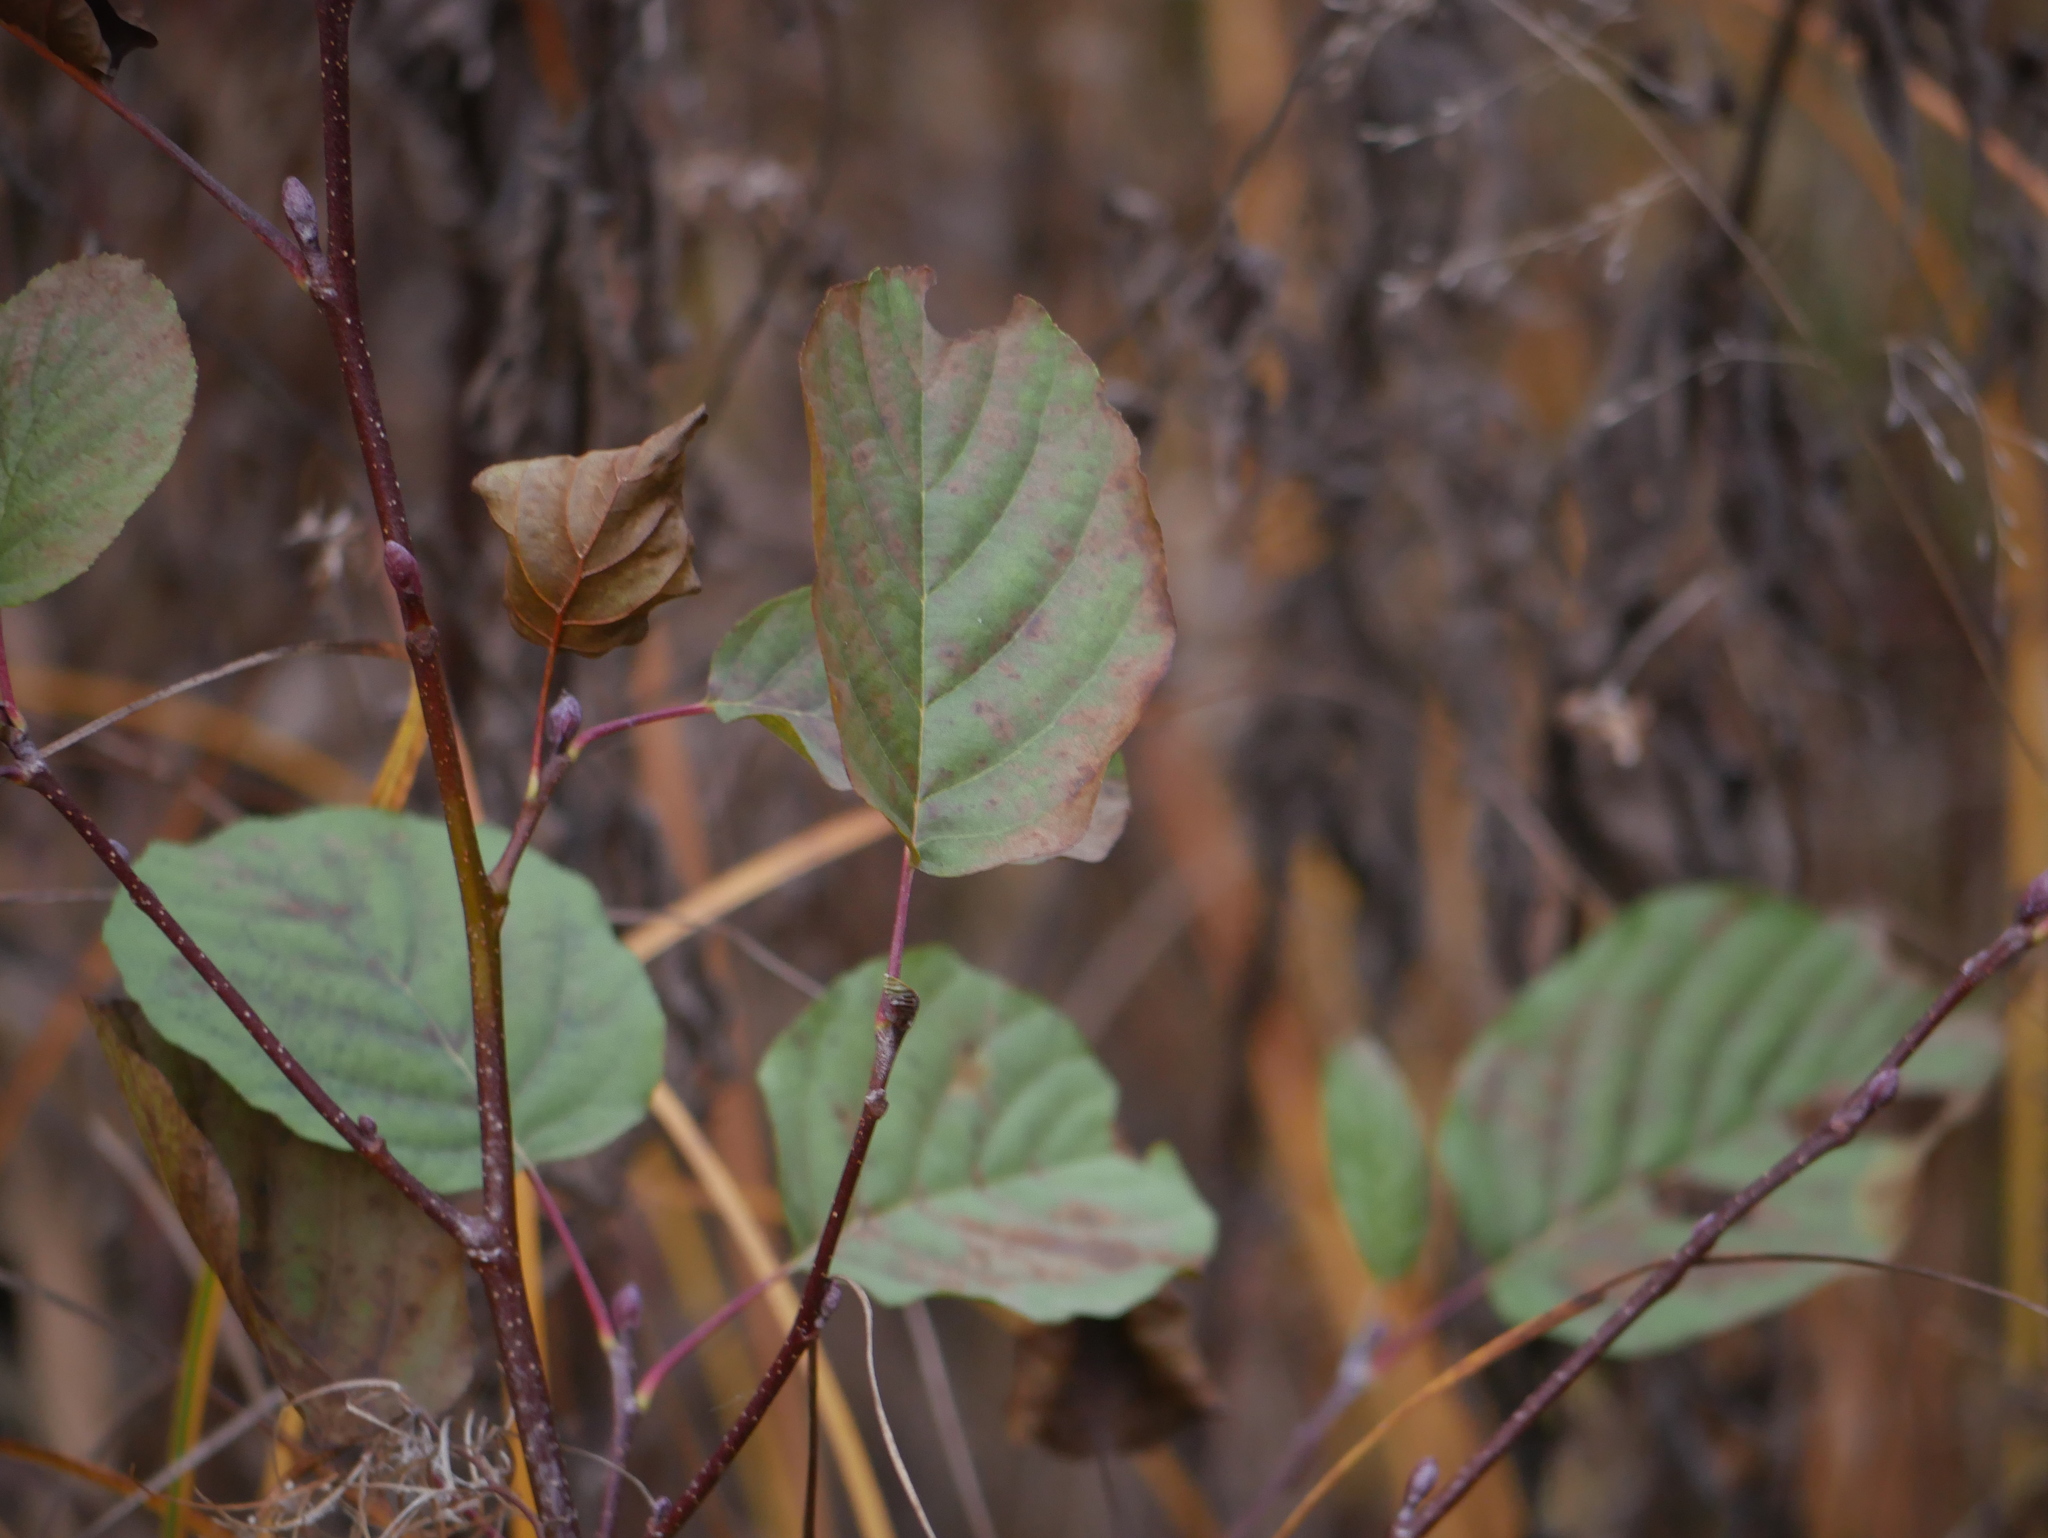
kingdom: Plantae
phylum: Tracheophyta
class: Magnoliopsida
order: Fagales
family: Betulaceae
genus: Alnus
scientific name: Alnus glutinosa
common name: Black alder
